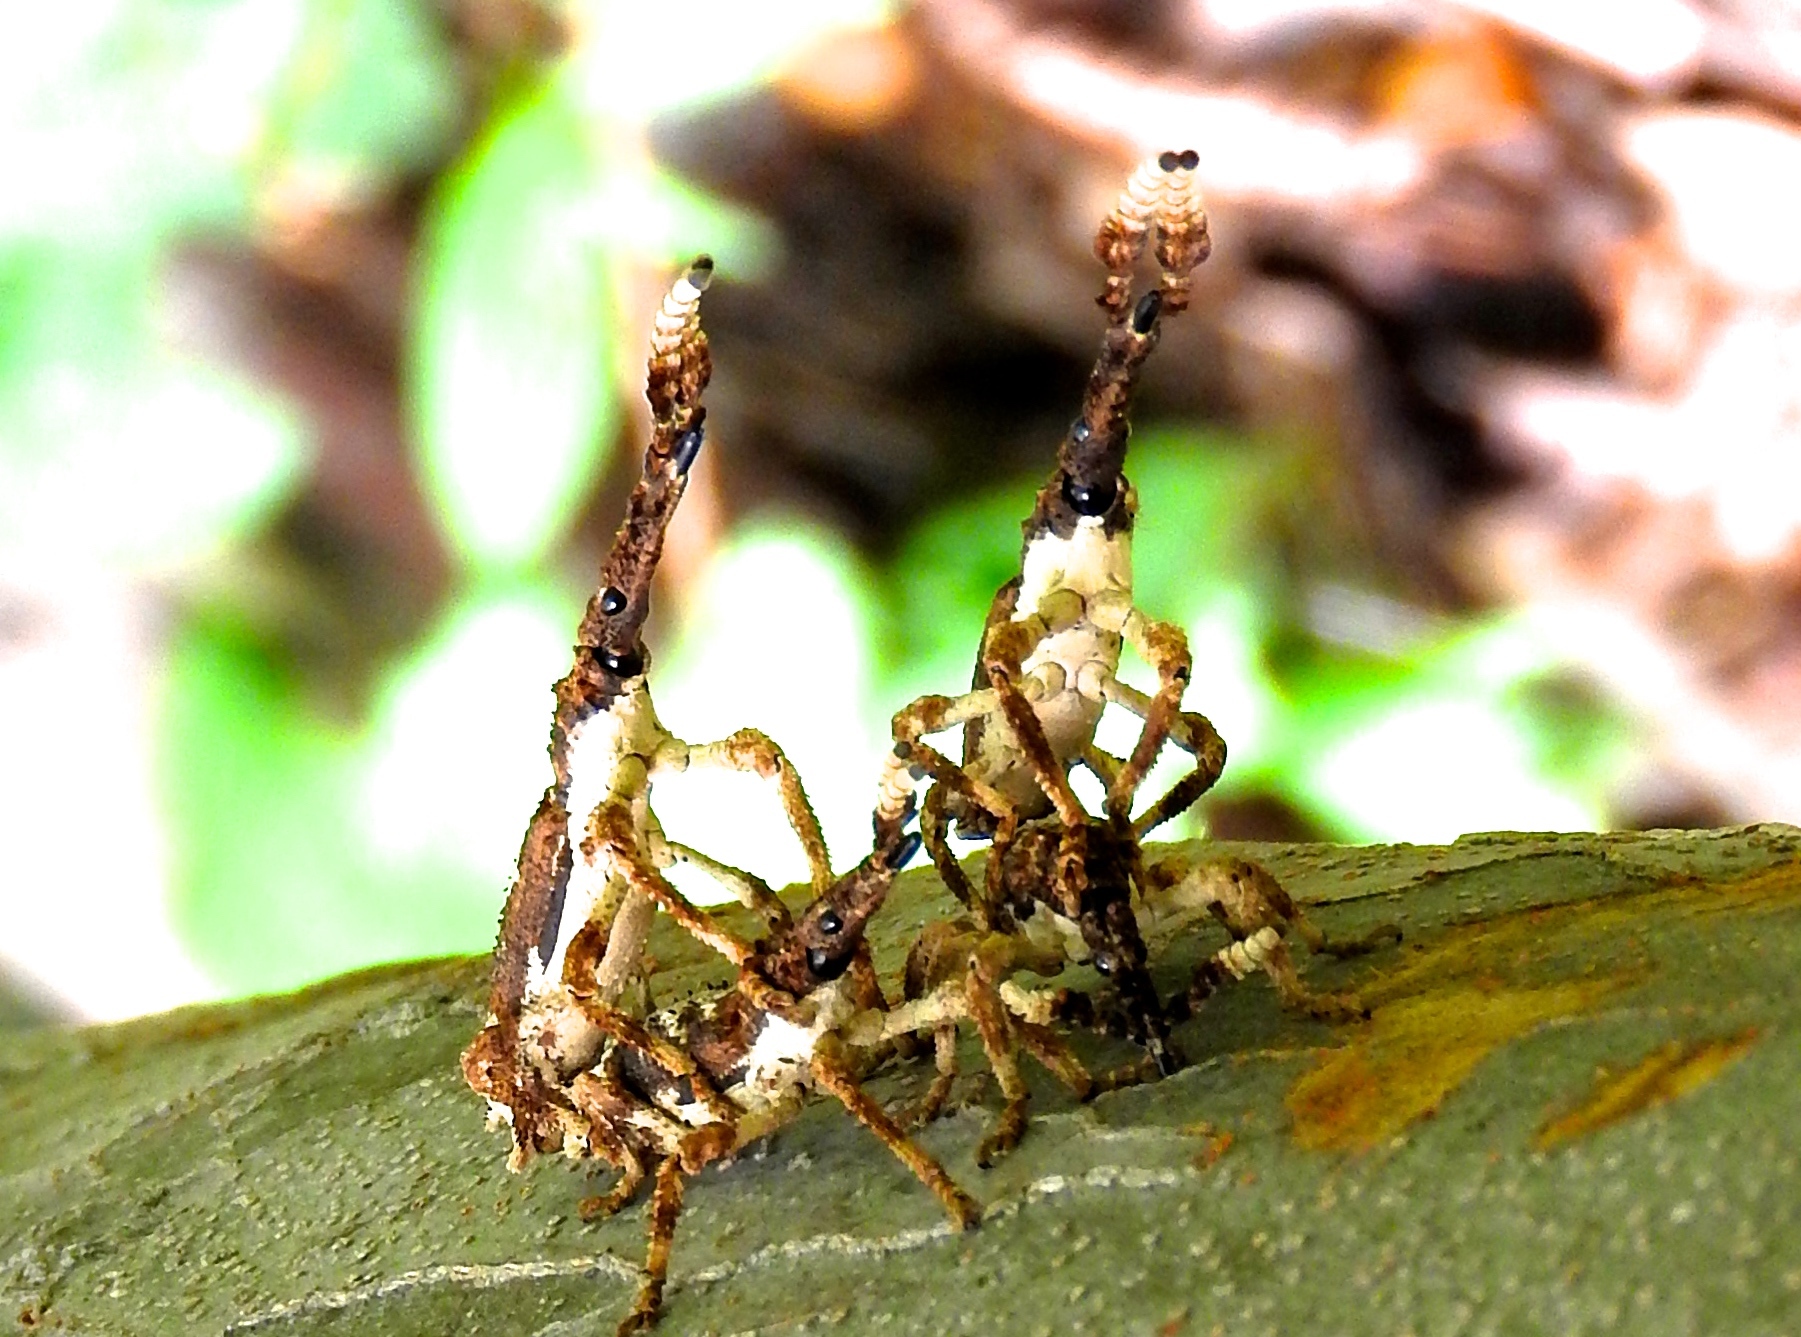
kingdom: Animalia
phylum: Arthropoda
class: Insecta
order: Coleoptera
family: Brentidae
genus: Ulocerus
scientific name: Ulocerus
